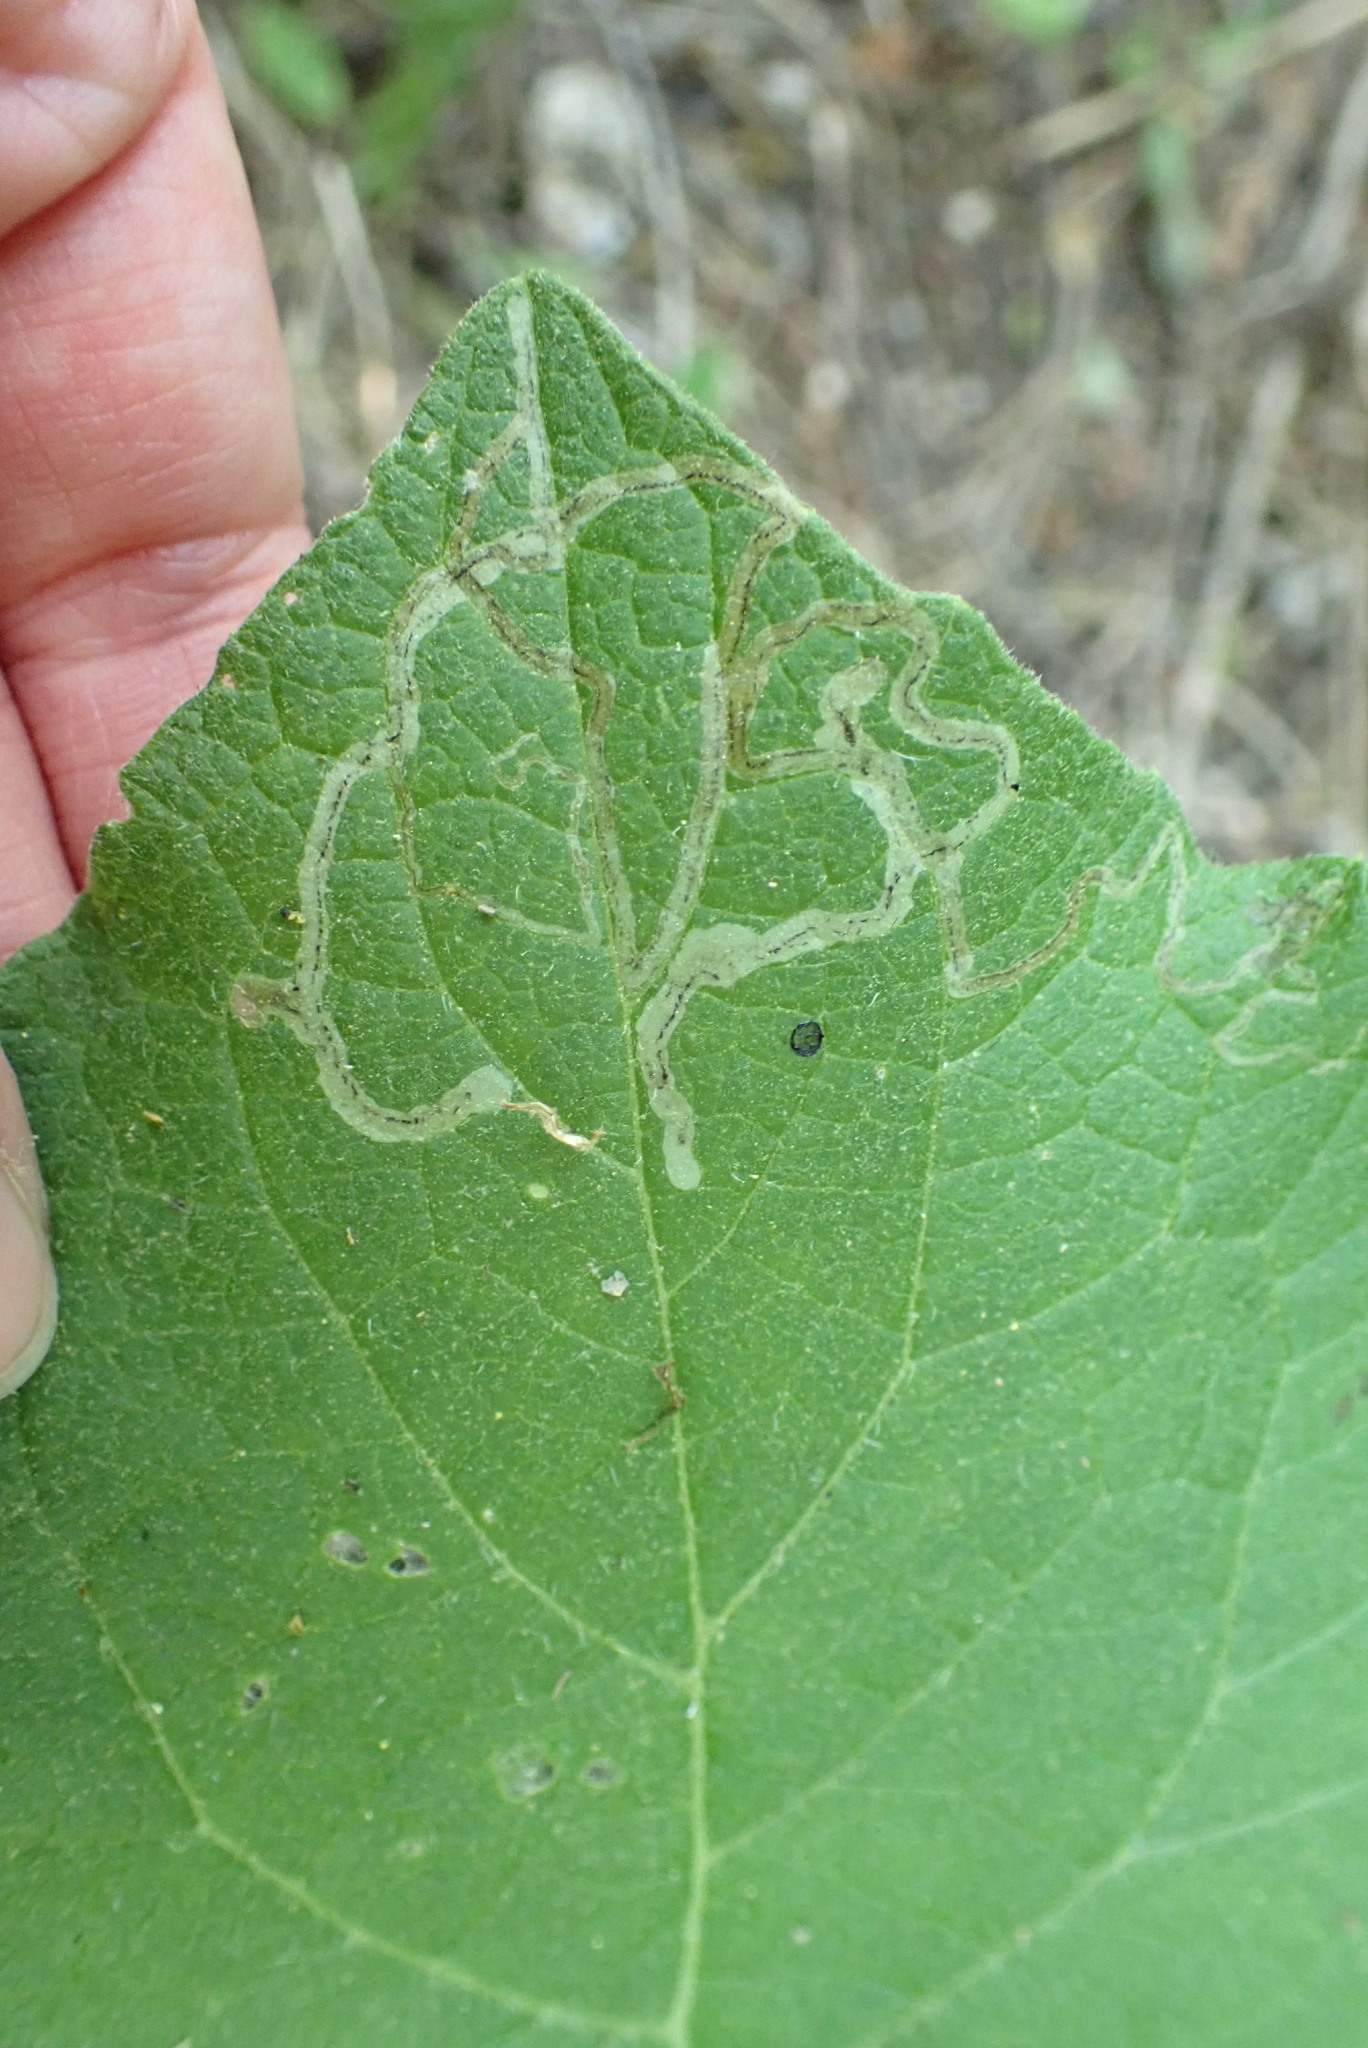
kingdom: Animalia
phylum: Arthropoda
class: Insecta
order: Diptera
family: Agromyzidae
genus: Liriomyza
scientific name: Liriomyza arctii
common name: Burdock leafminer
